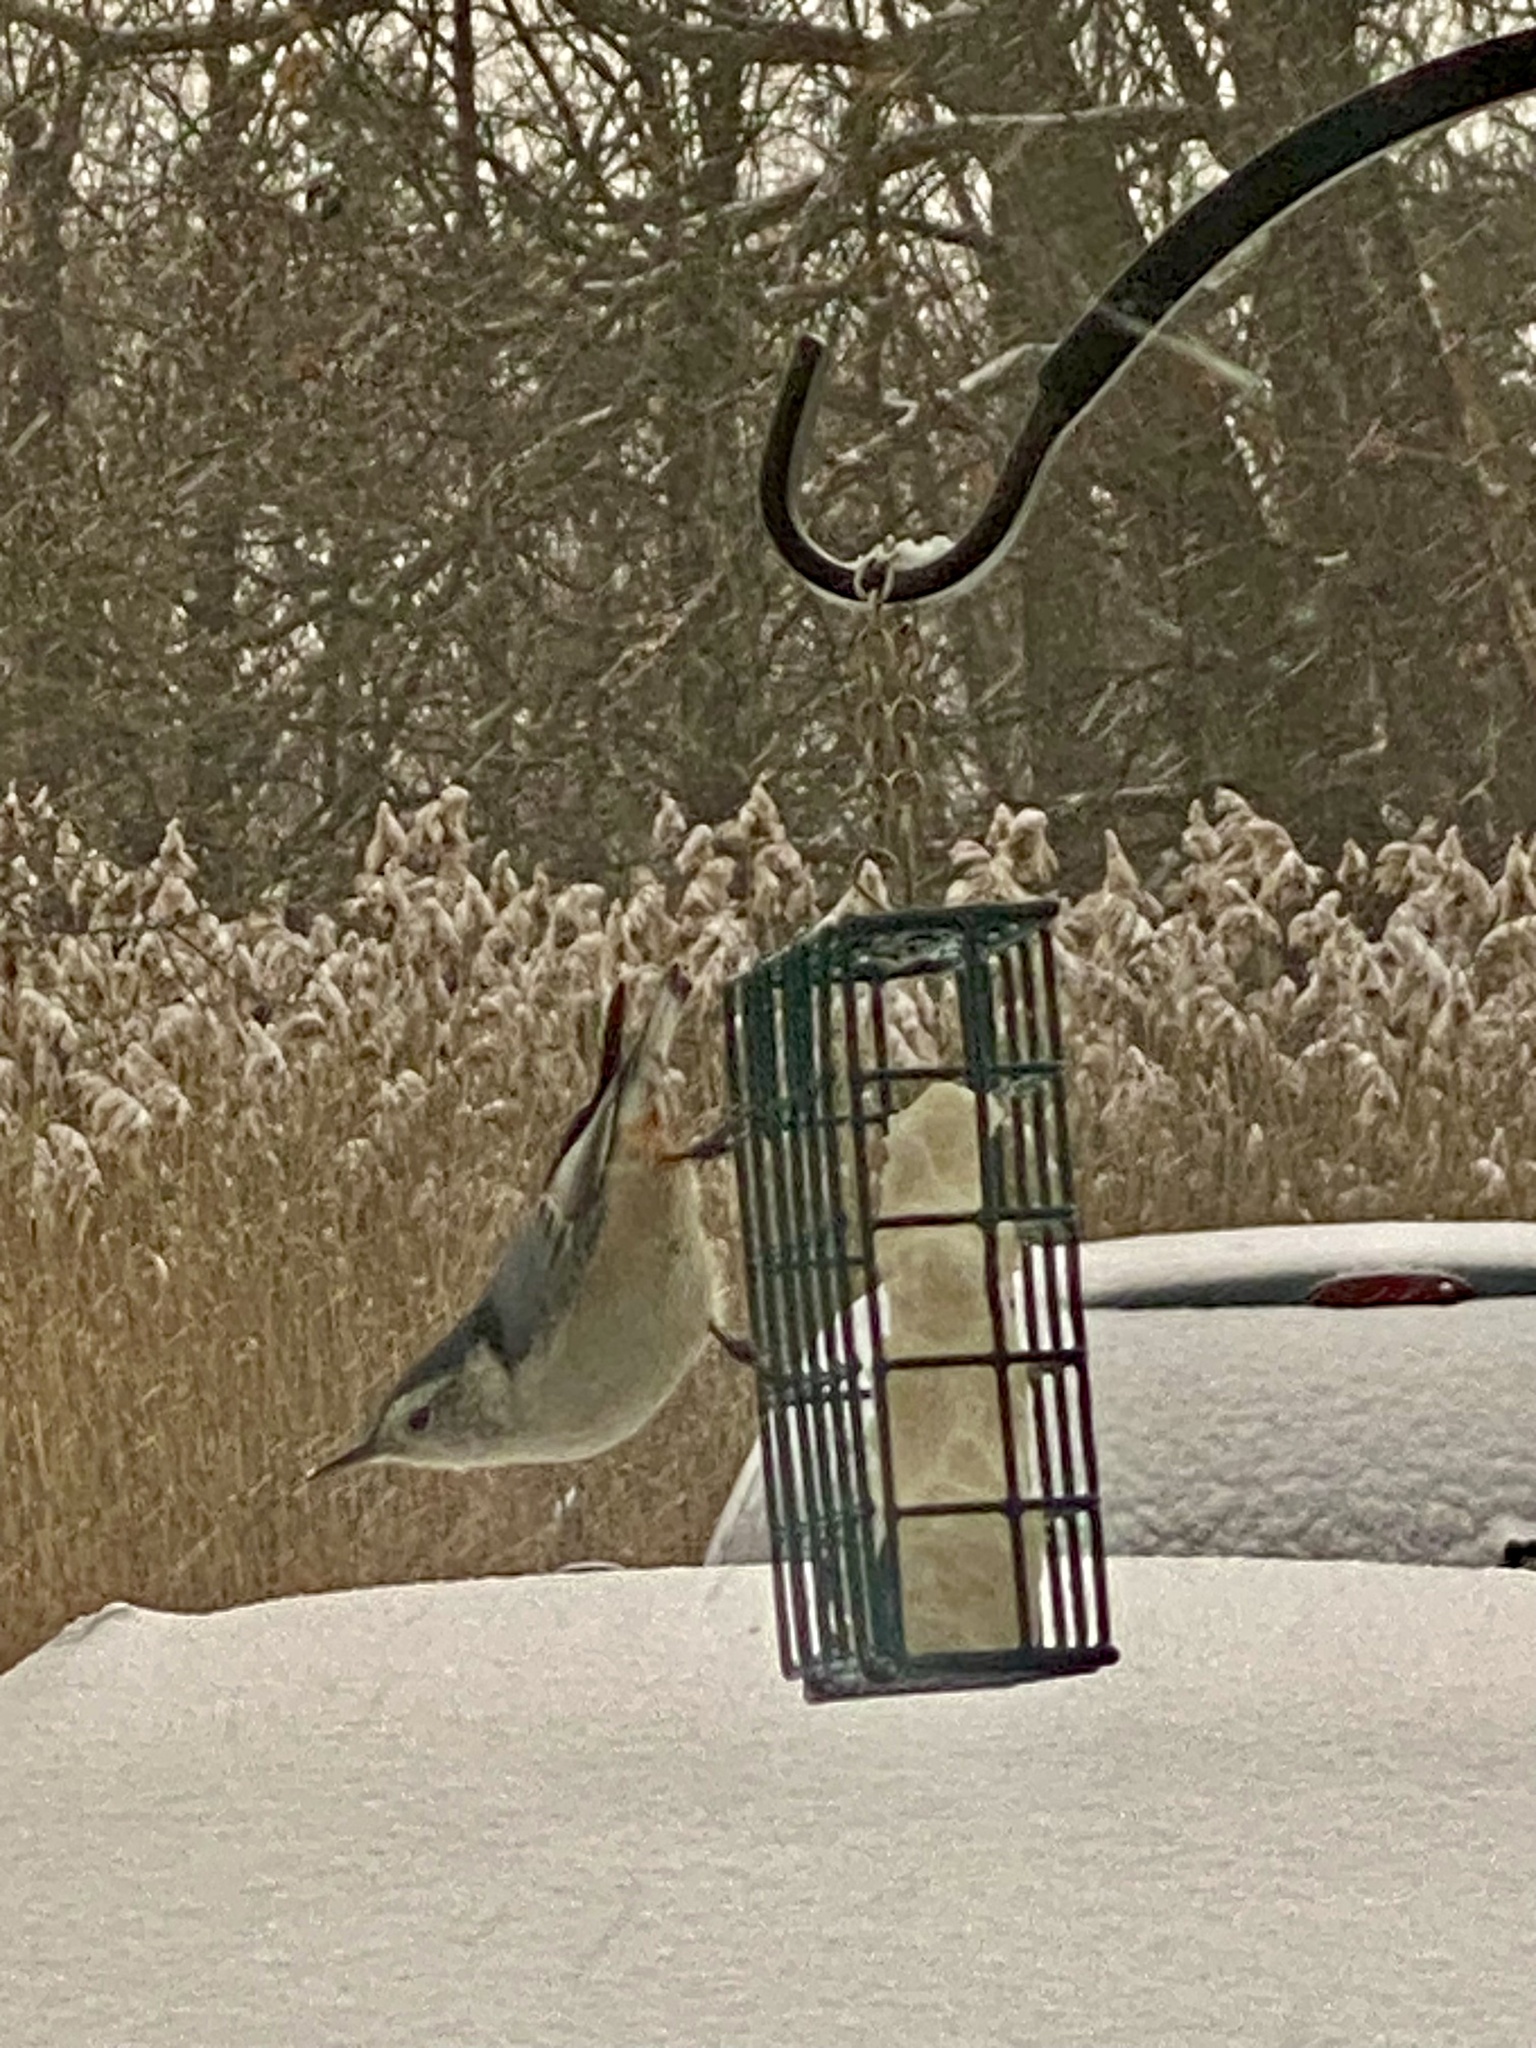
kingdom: Animalia
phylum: Chordata
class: Aves
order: Passeriformes
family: Sittidae
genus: Sitta
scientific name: Sitta carolinensis
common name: White-breasted nuthatch
